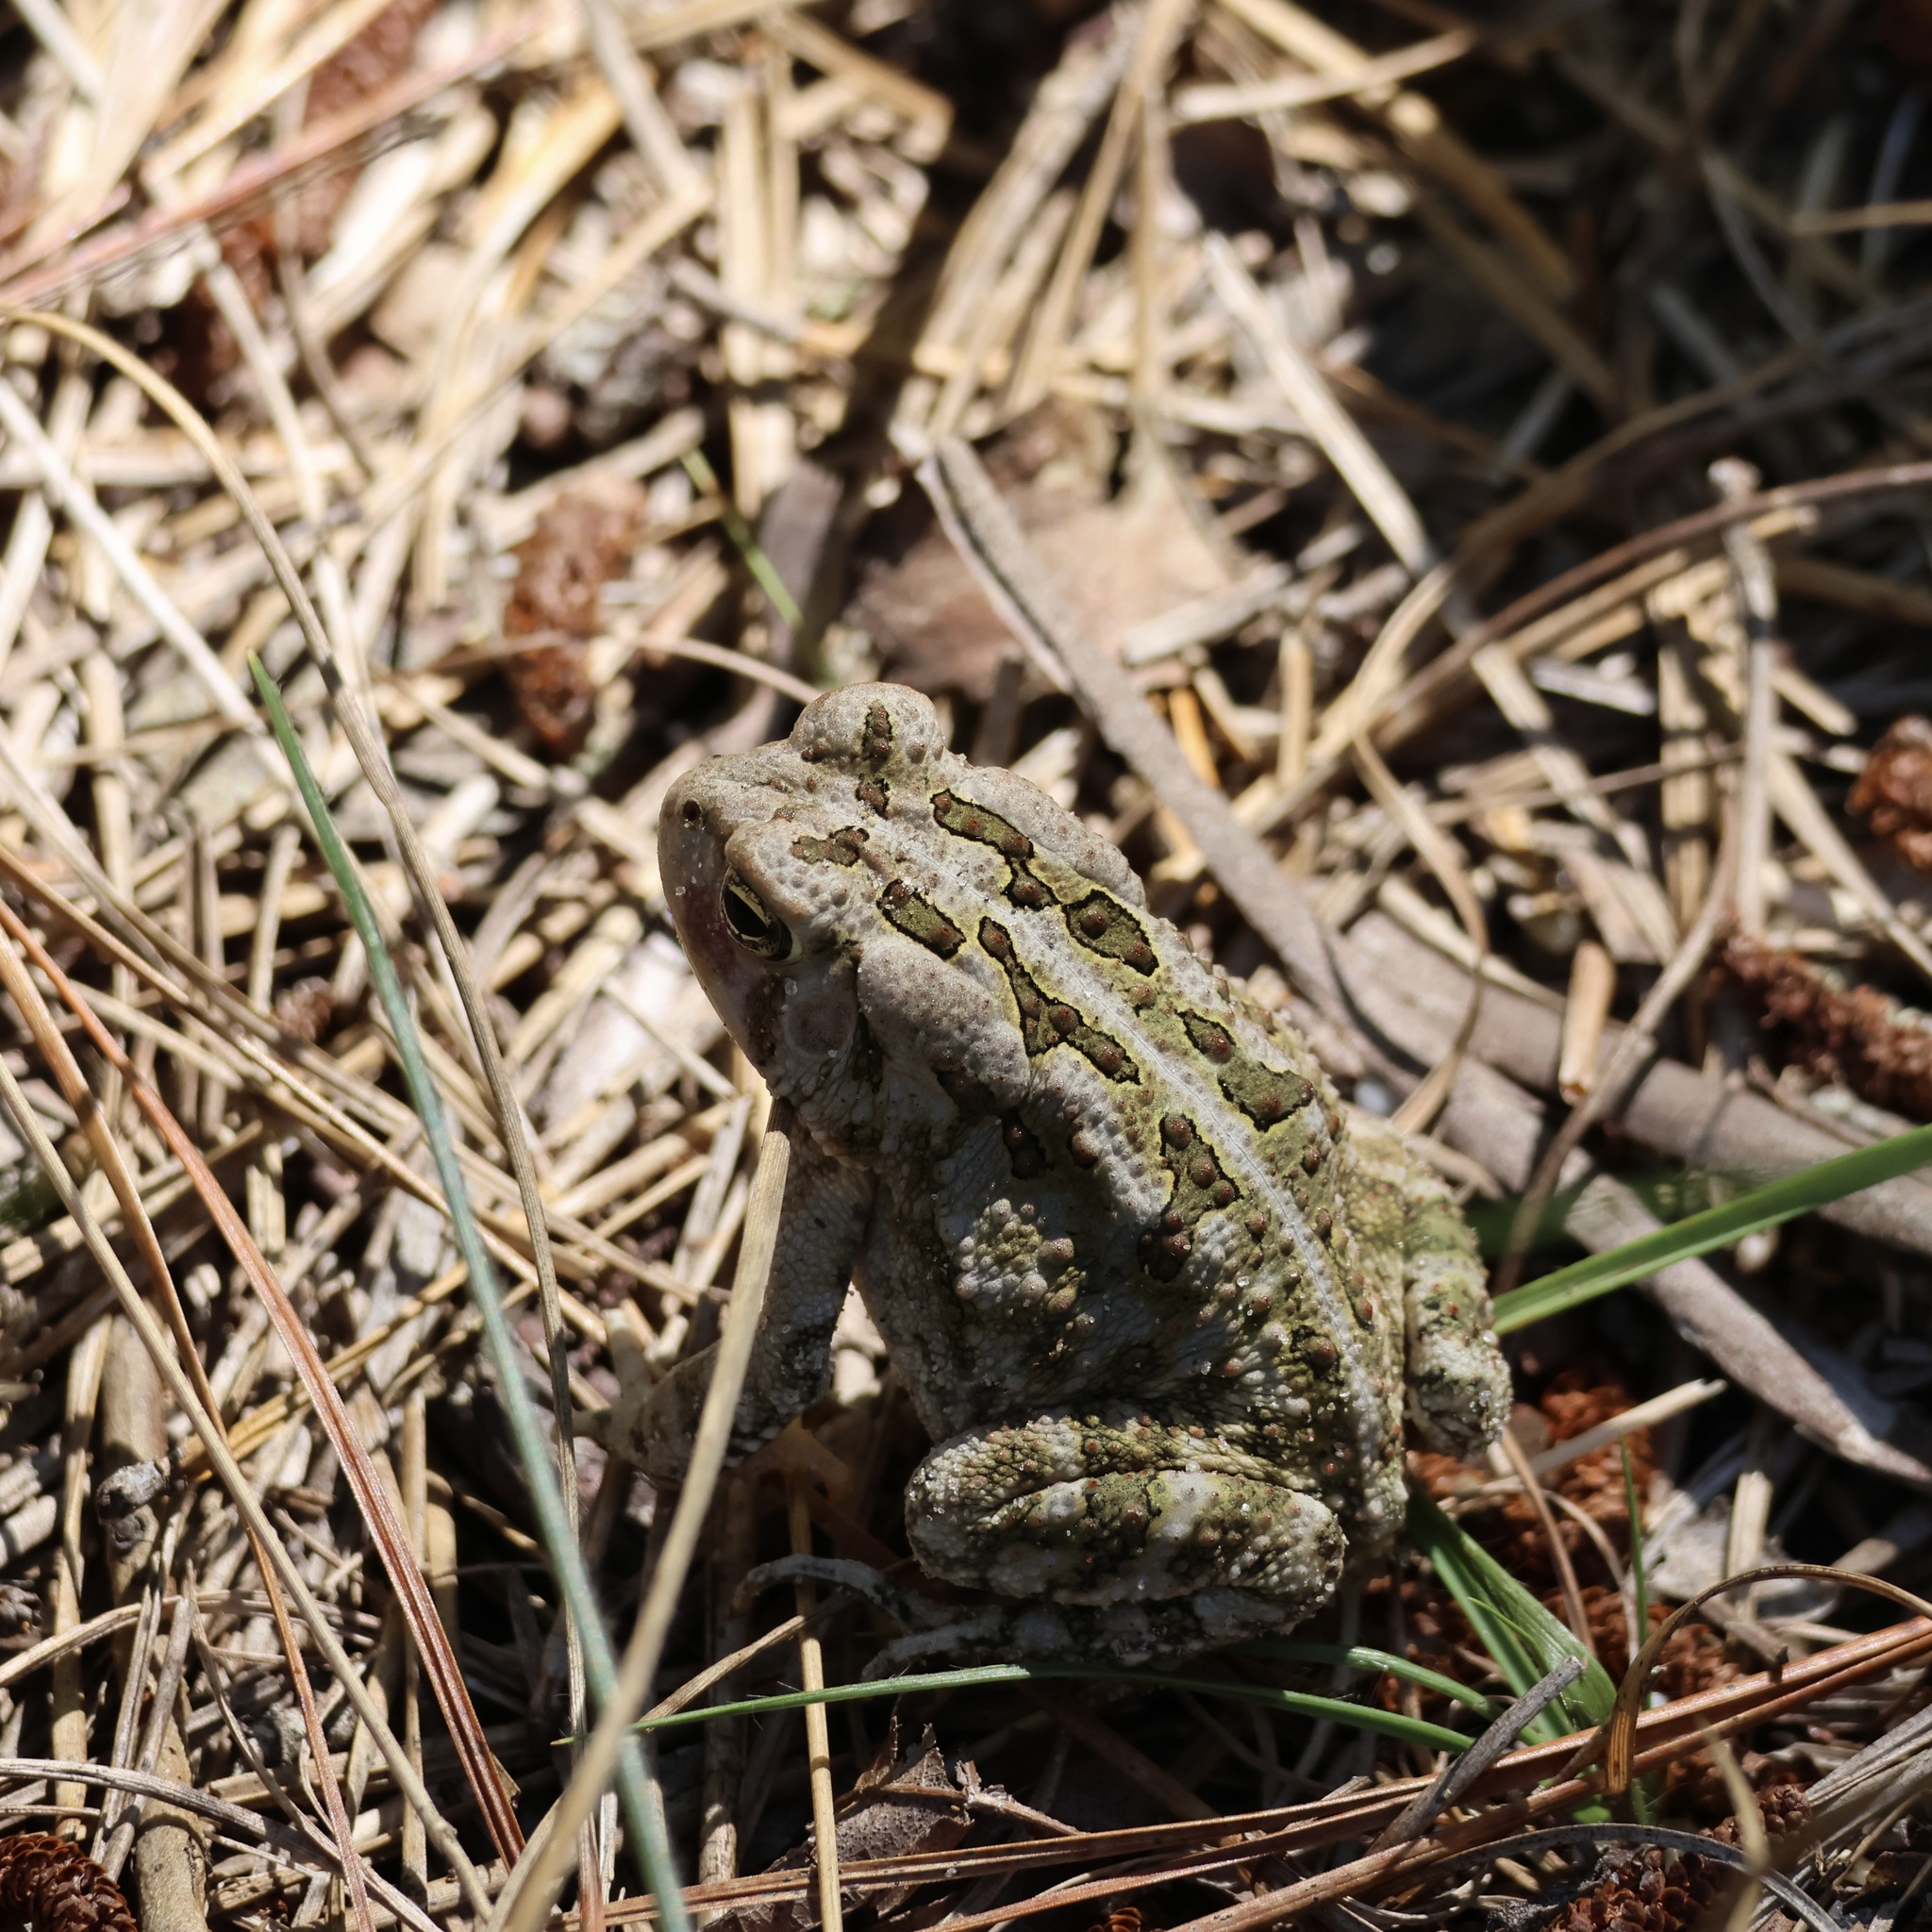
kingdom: Animalia
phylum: Chordata
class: Amphibia
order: Anura
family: Bufonidae
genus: Anaxyrus
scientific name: Anaxyrus fowleri
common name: Fowler's toad
